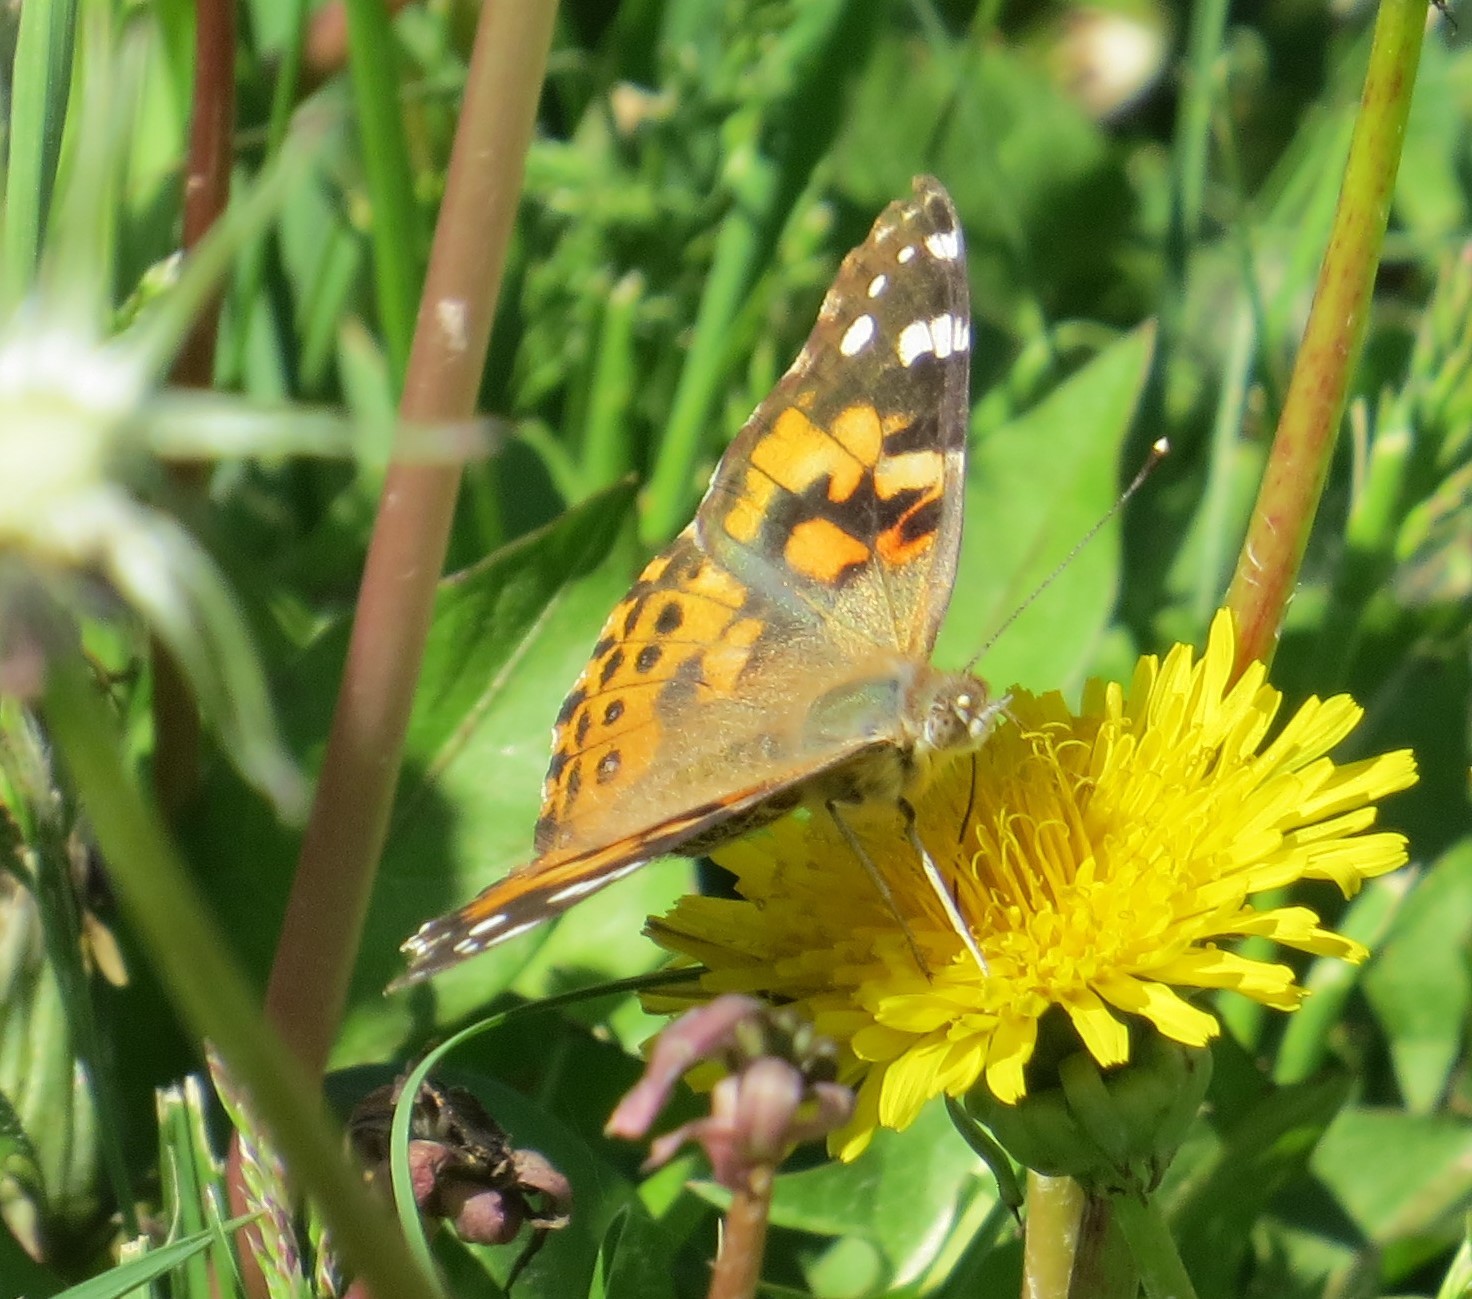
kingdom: Animalia
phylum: Arthropoda
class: Insecta
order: Lepidoptera
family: Nymphalidae
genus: Vanessa
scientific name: Vanessa cardui
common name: Painted lady
